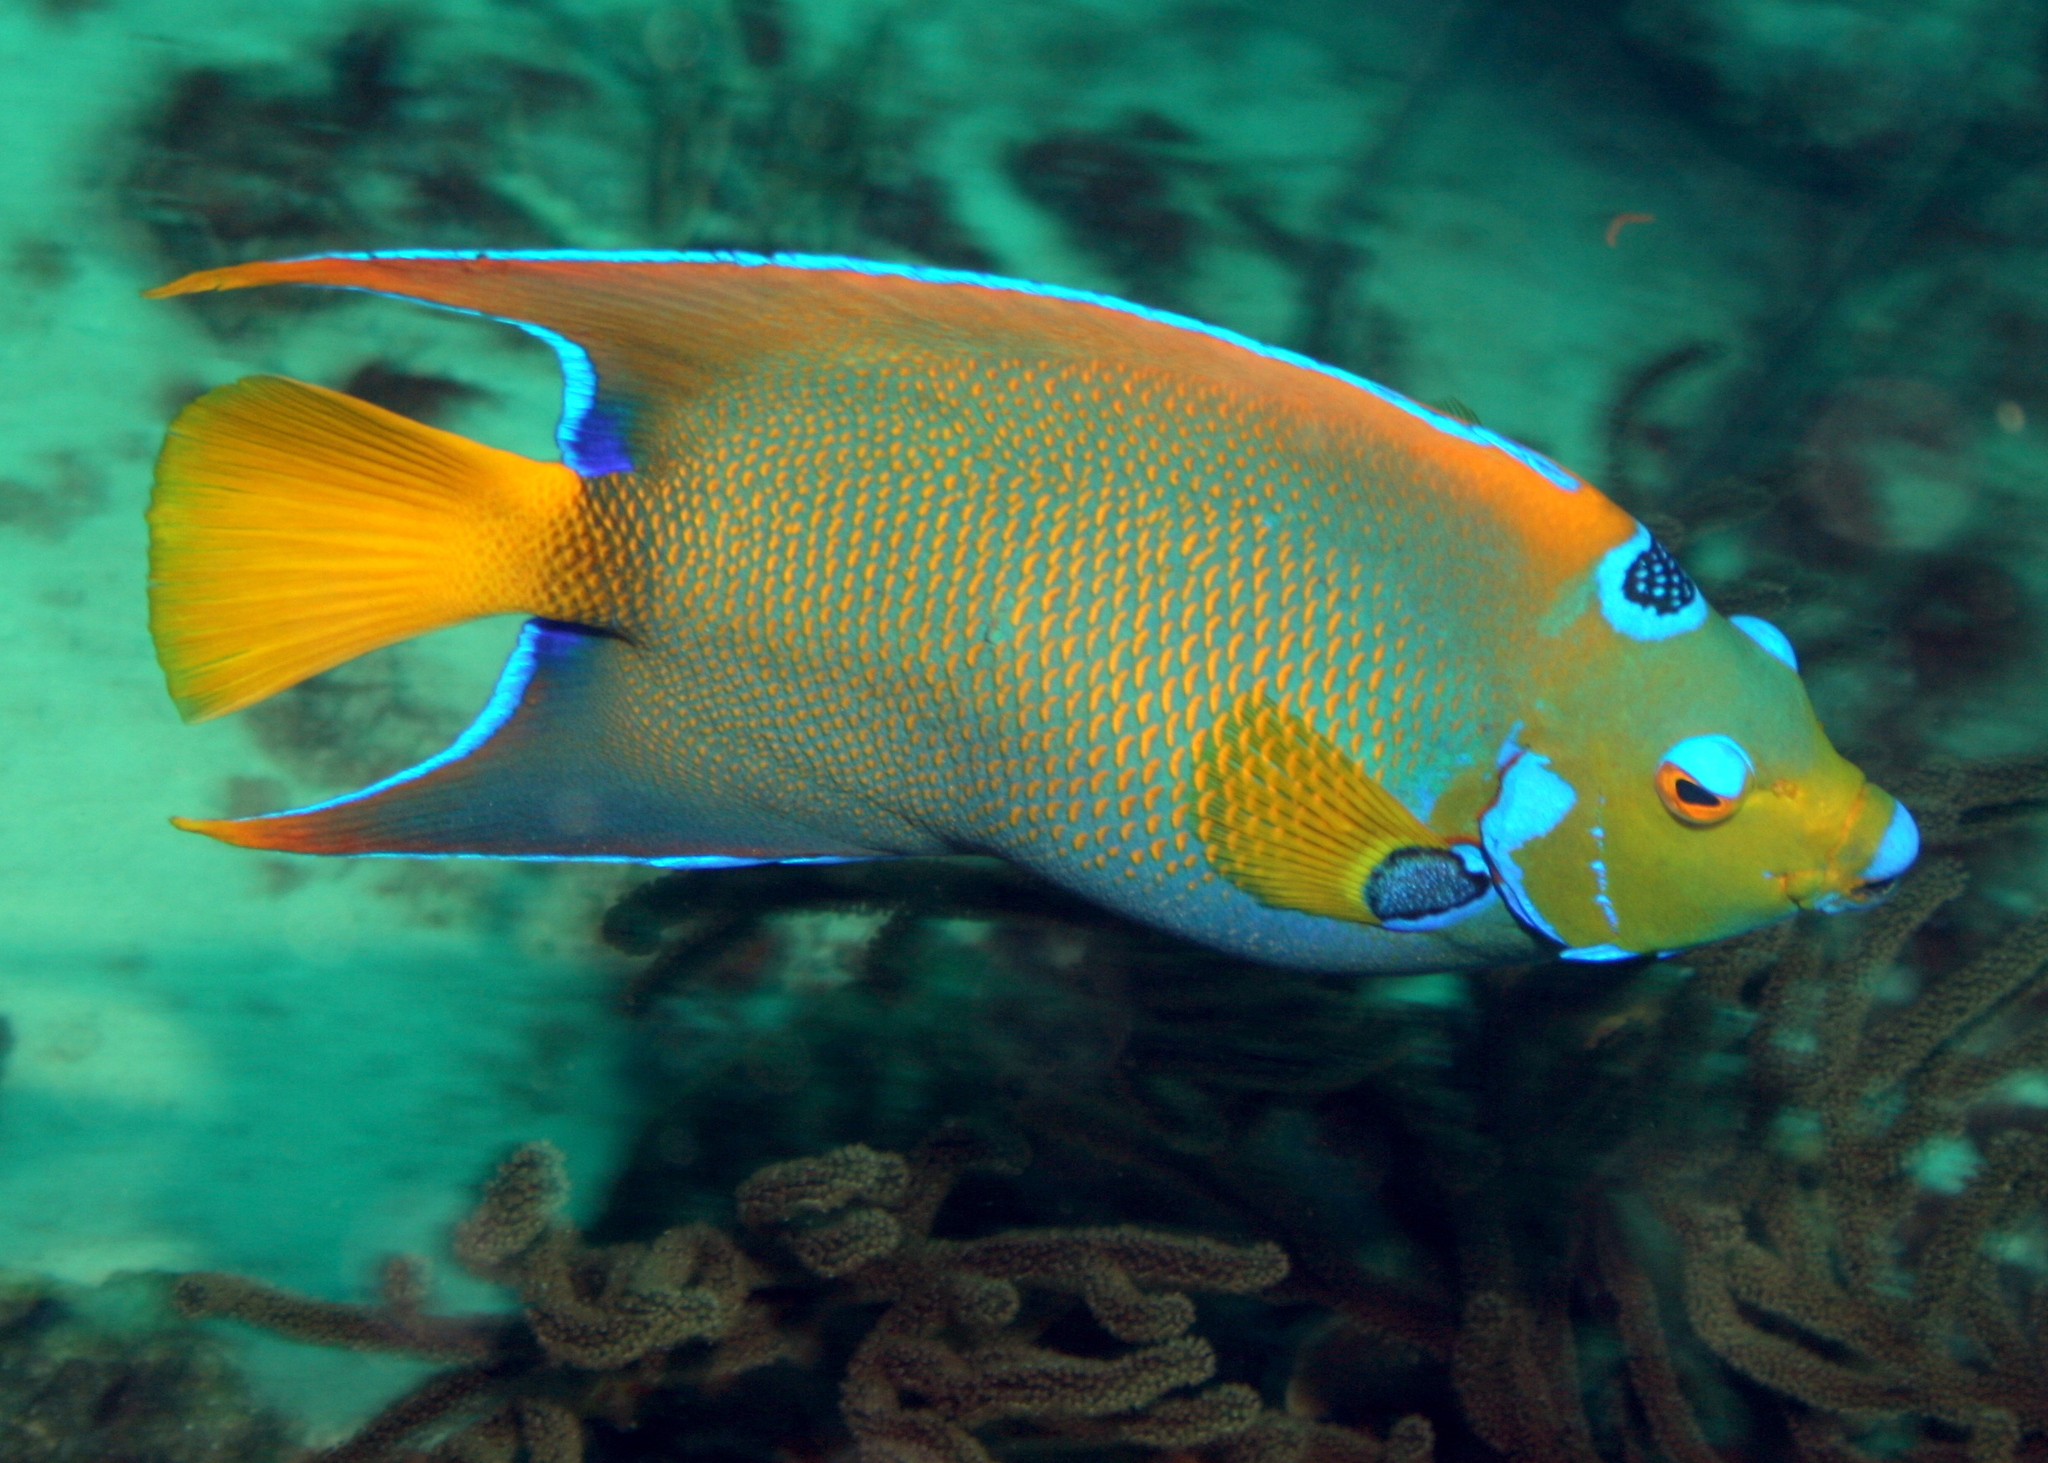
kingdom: Animalia
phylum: Chordata
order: Perciformes
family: Pomacanthidae
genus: Holacanthus
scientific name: Holacanthus ciliaris
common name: Queen angelfish
